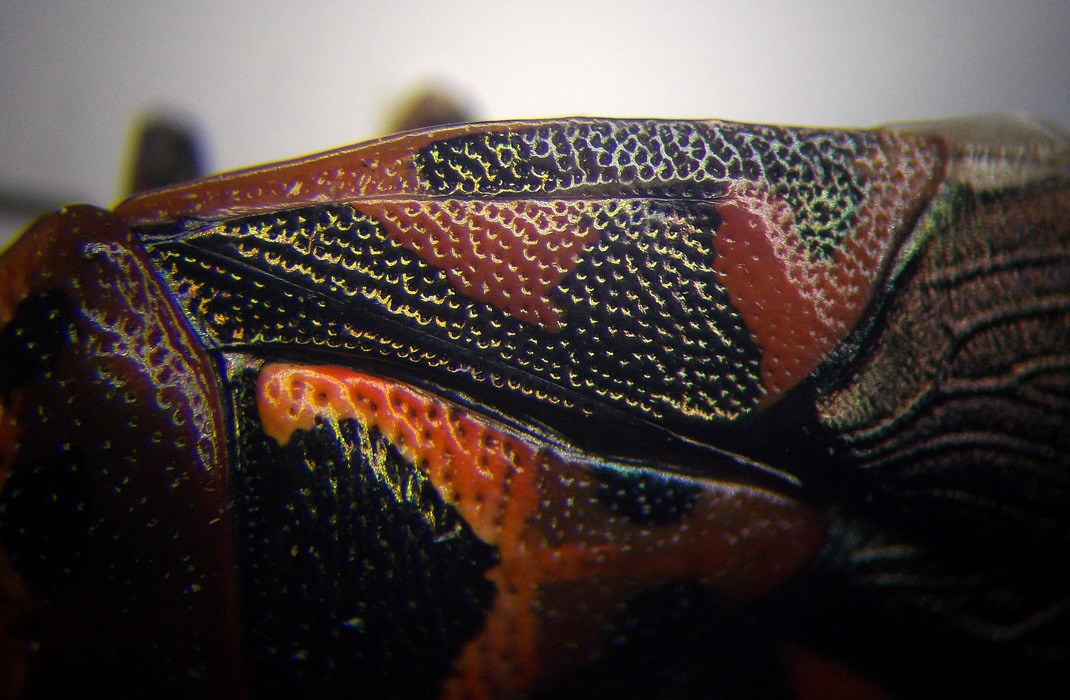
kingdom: Animalia
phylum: Arthropoda
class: Insecta
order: Hemiptera
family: Pentatomidae
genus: Eurydema
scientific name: Eurydema ornata
